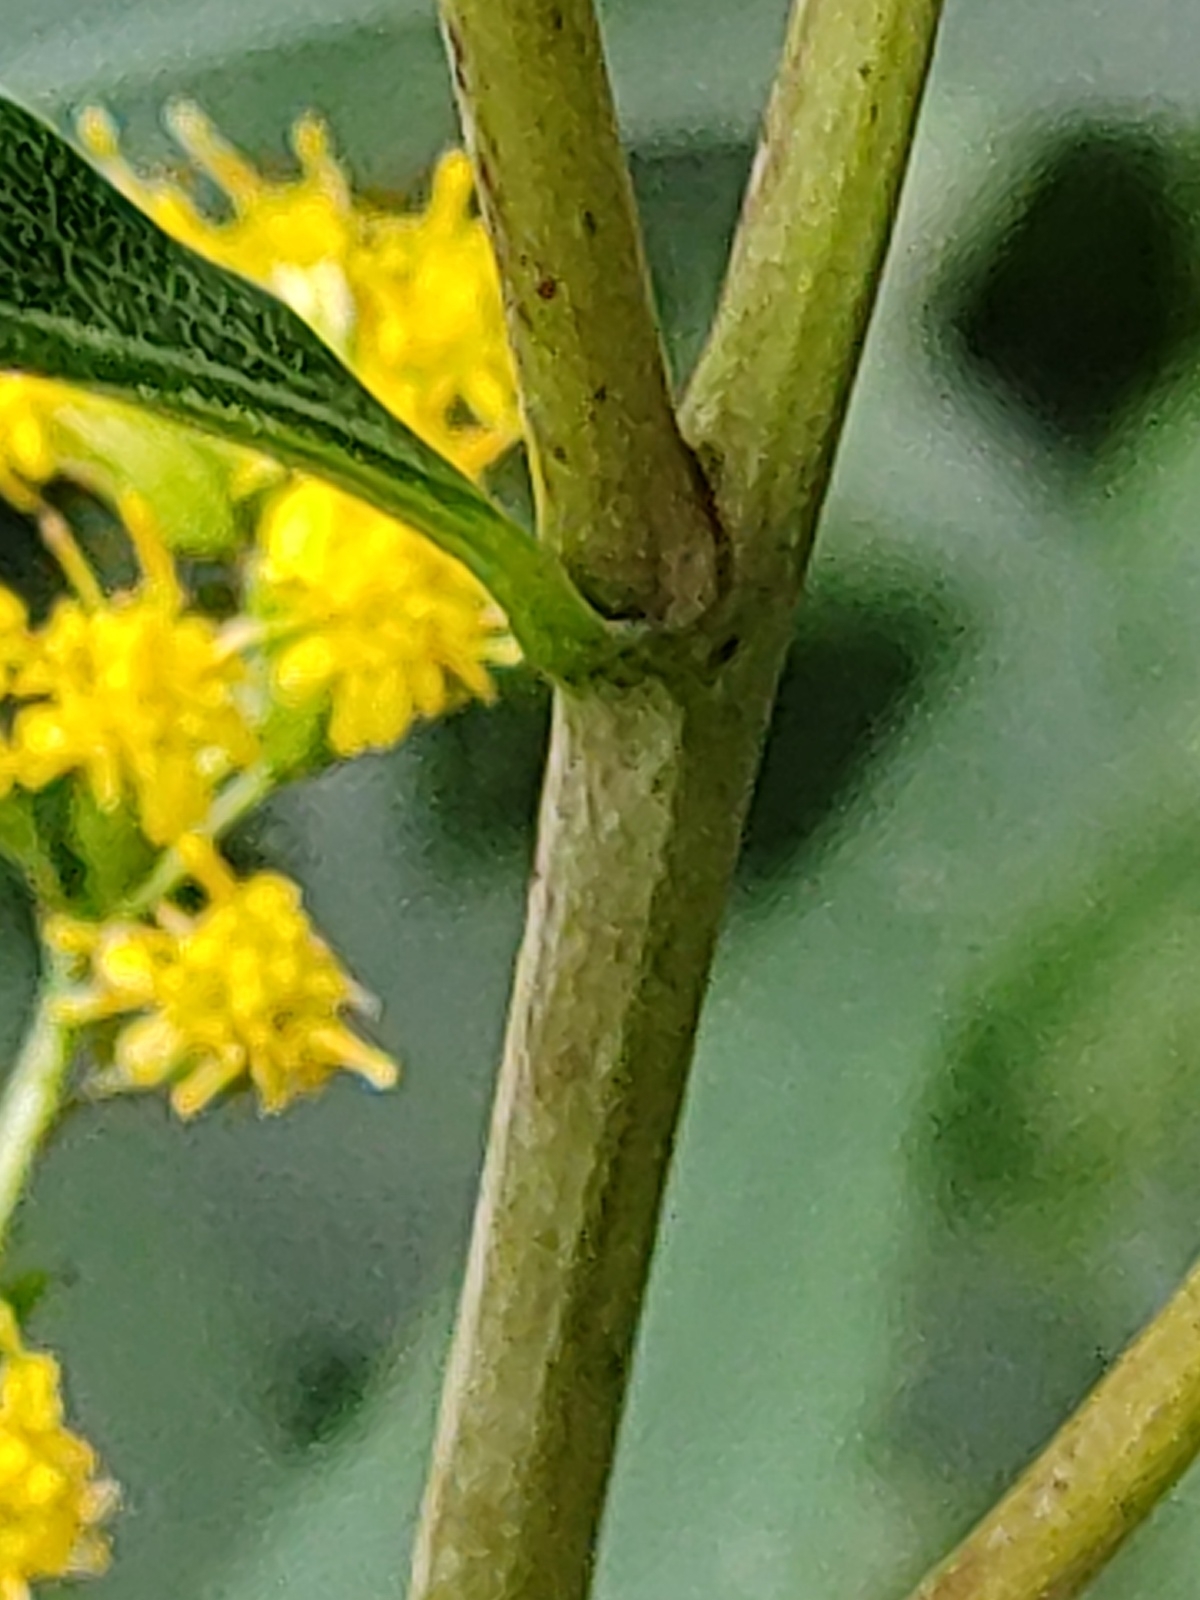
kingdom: Plantae
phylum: Tracheophyta
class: Magnoliopsida
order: Asterales
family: Asteraceae
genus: Solidago
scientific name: Solidago canadensis
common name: Canada goldenrod
